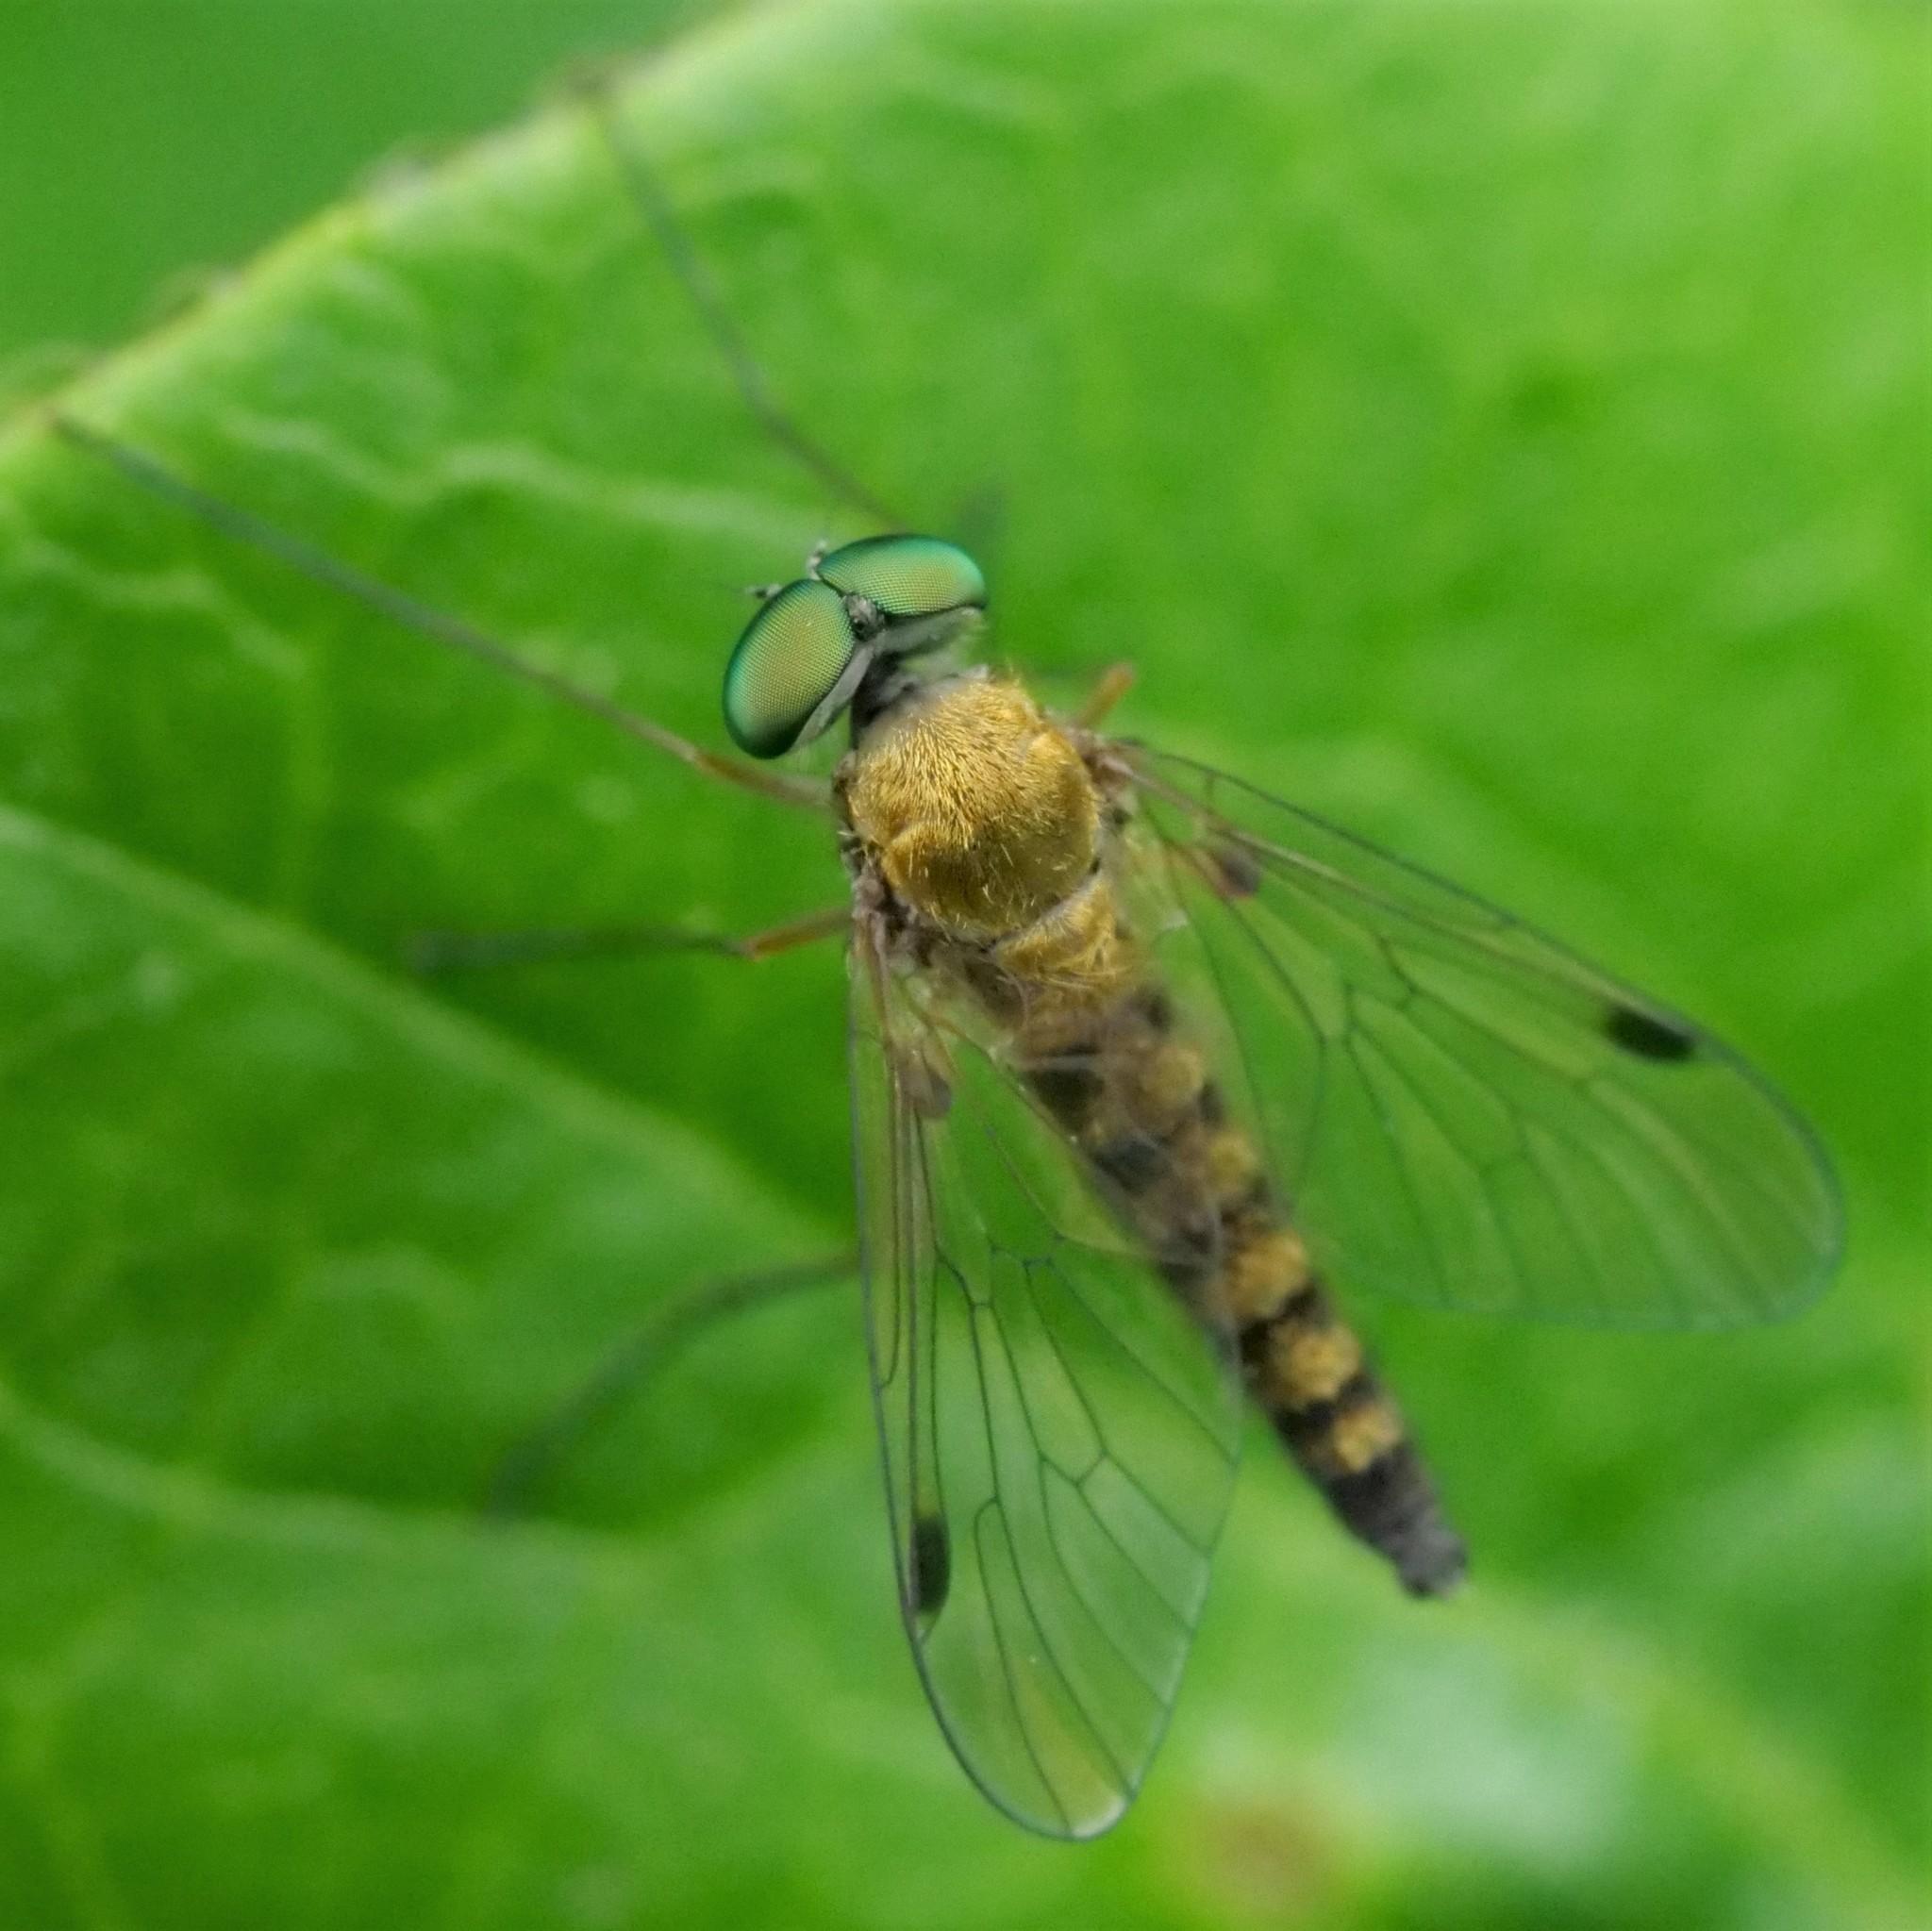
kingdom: Animalia
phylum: Arthropoda
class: Insecta
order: Diptera
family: Rhagionidae
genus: Chrysopilus
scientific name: Chrysopilus asiliformis
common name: Little snipefly
